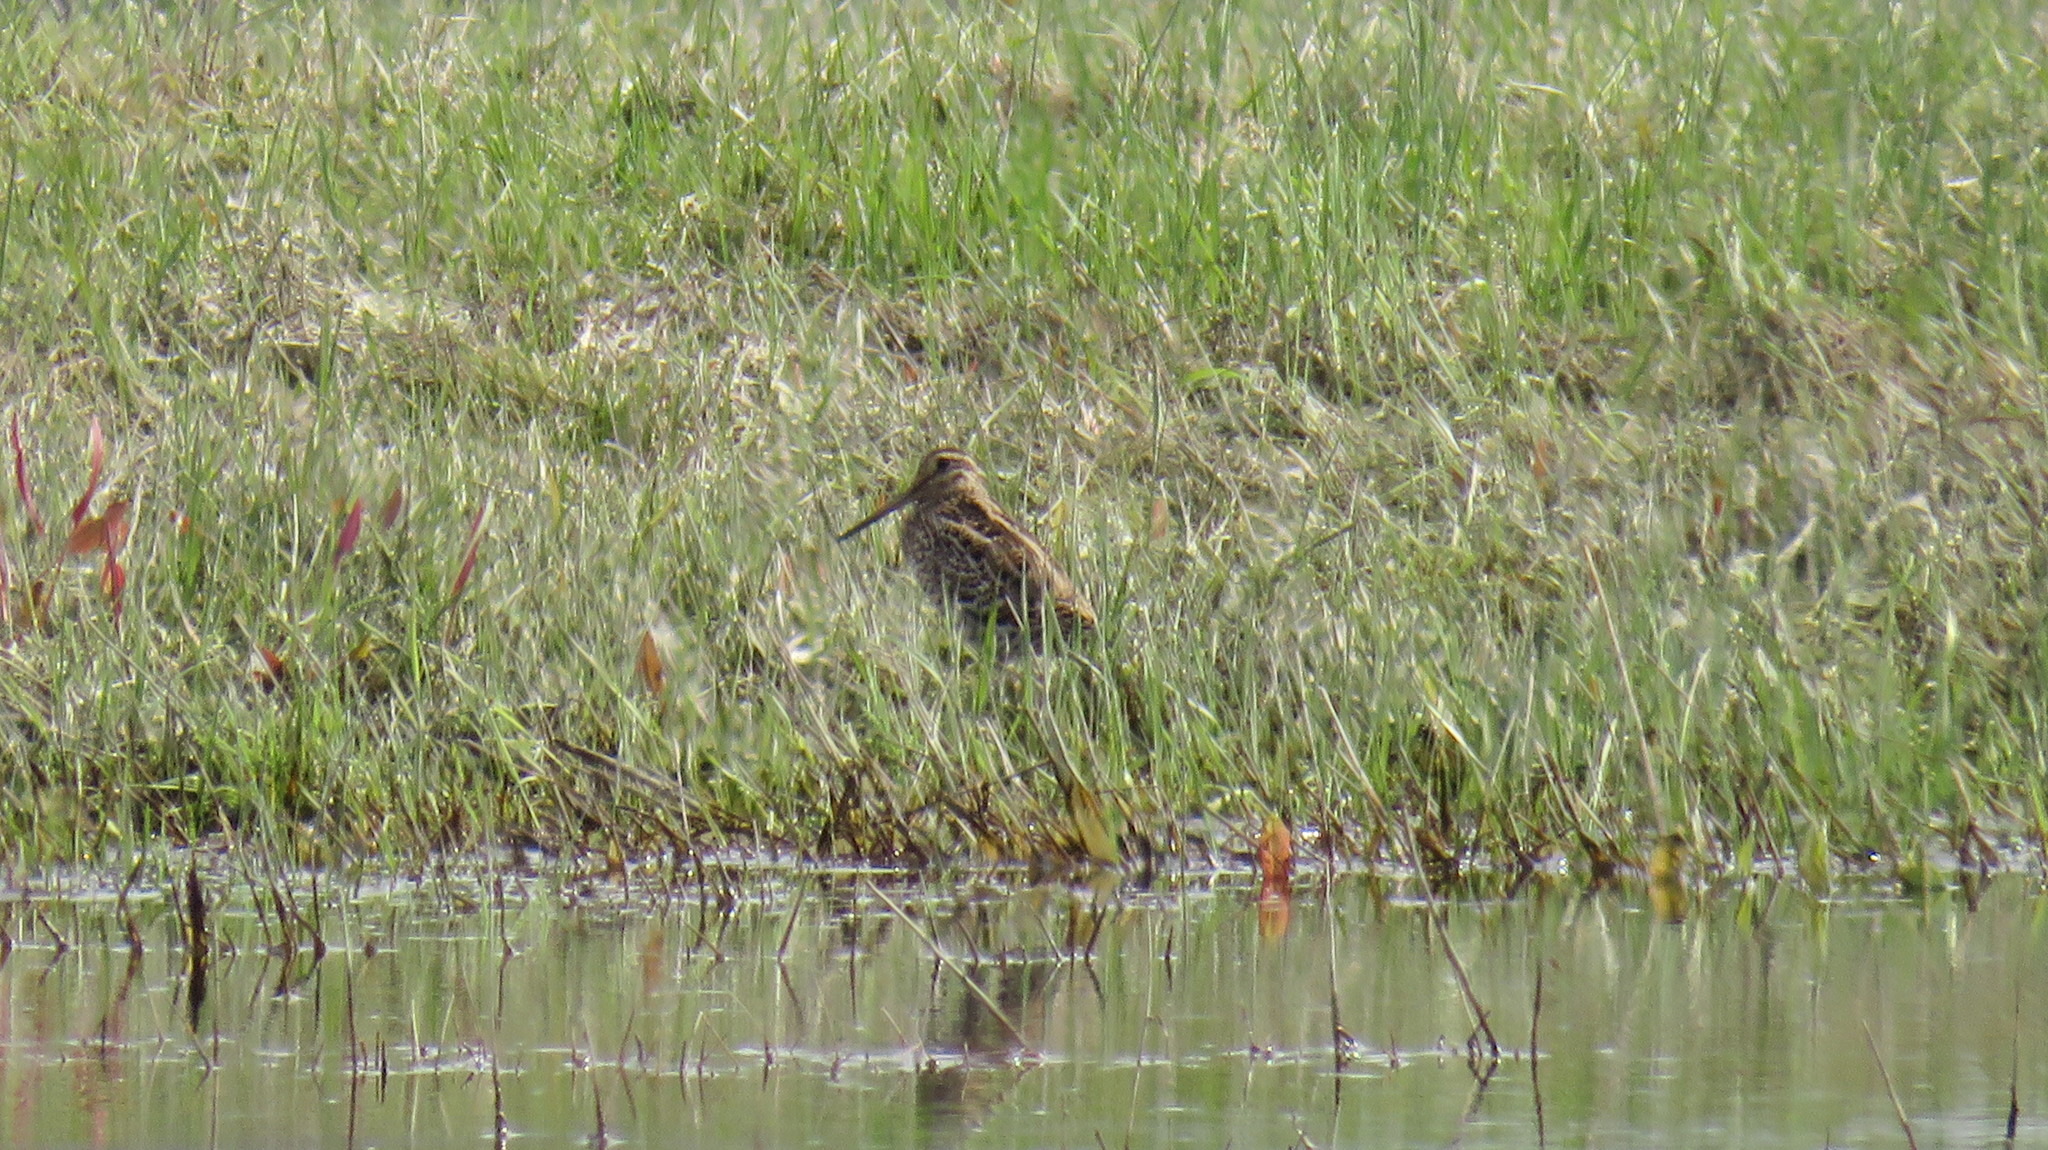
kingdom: Animalia
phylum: Chordata
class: Aves
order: Charadriiformes
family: Scolopacidae
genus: Gallinago
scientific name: Gallinago media
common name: Great snipe
